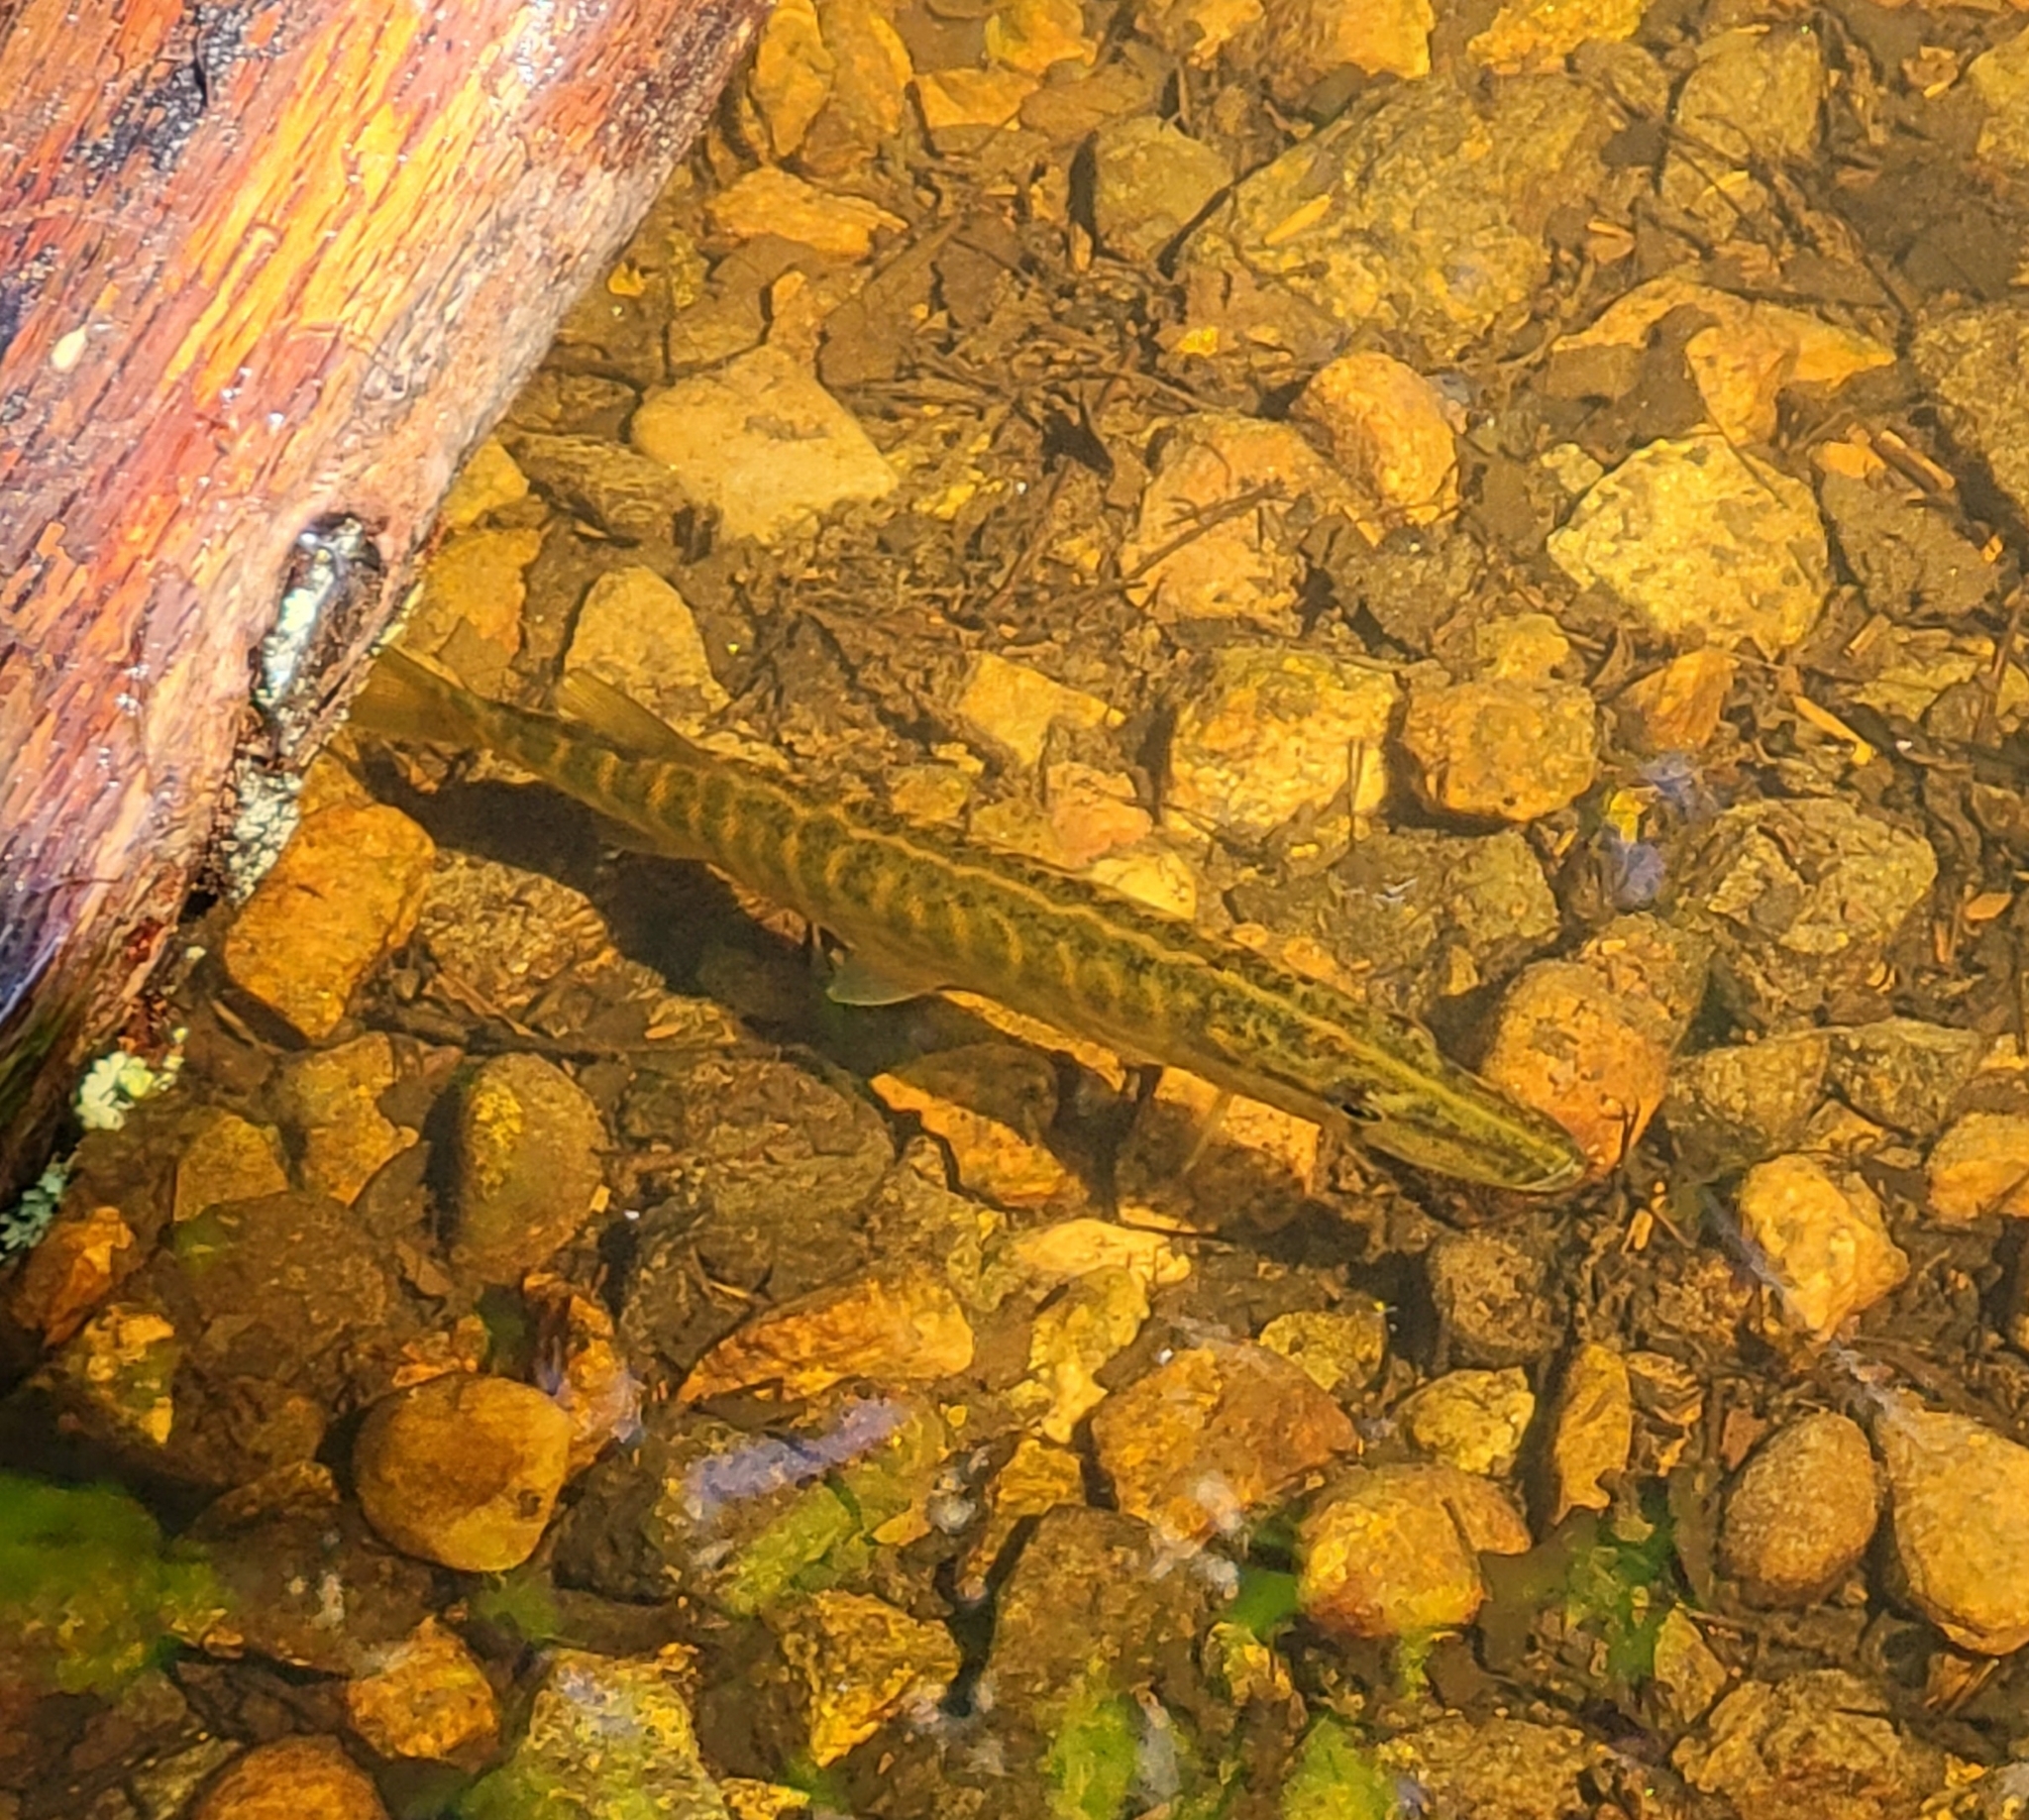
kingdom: Animalia
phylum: Chordata
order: Esociformes
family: Esocidae
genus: Esox
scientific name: Esox lucius
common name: Northern pike
